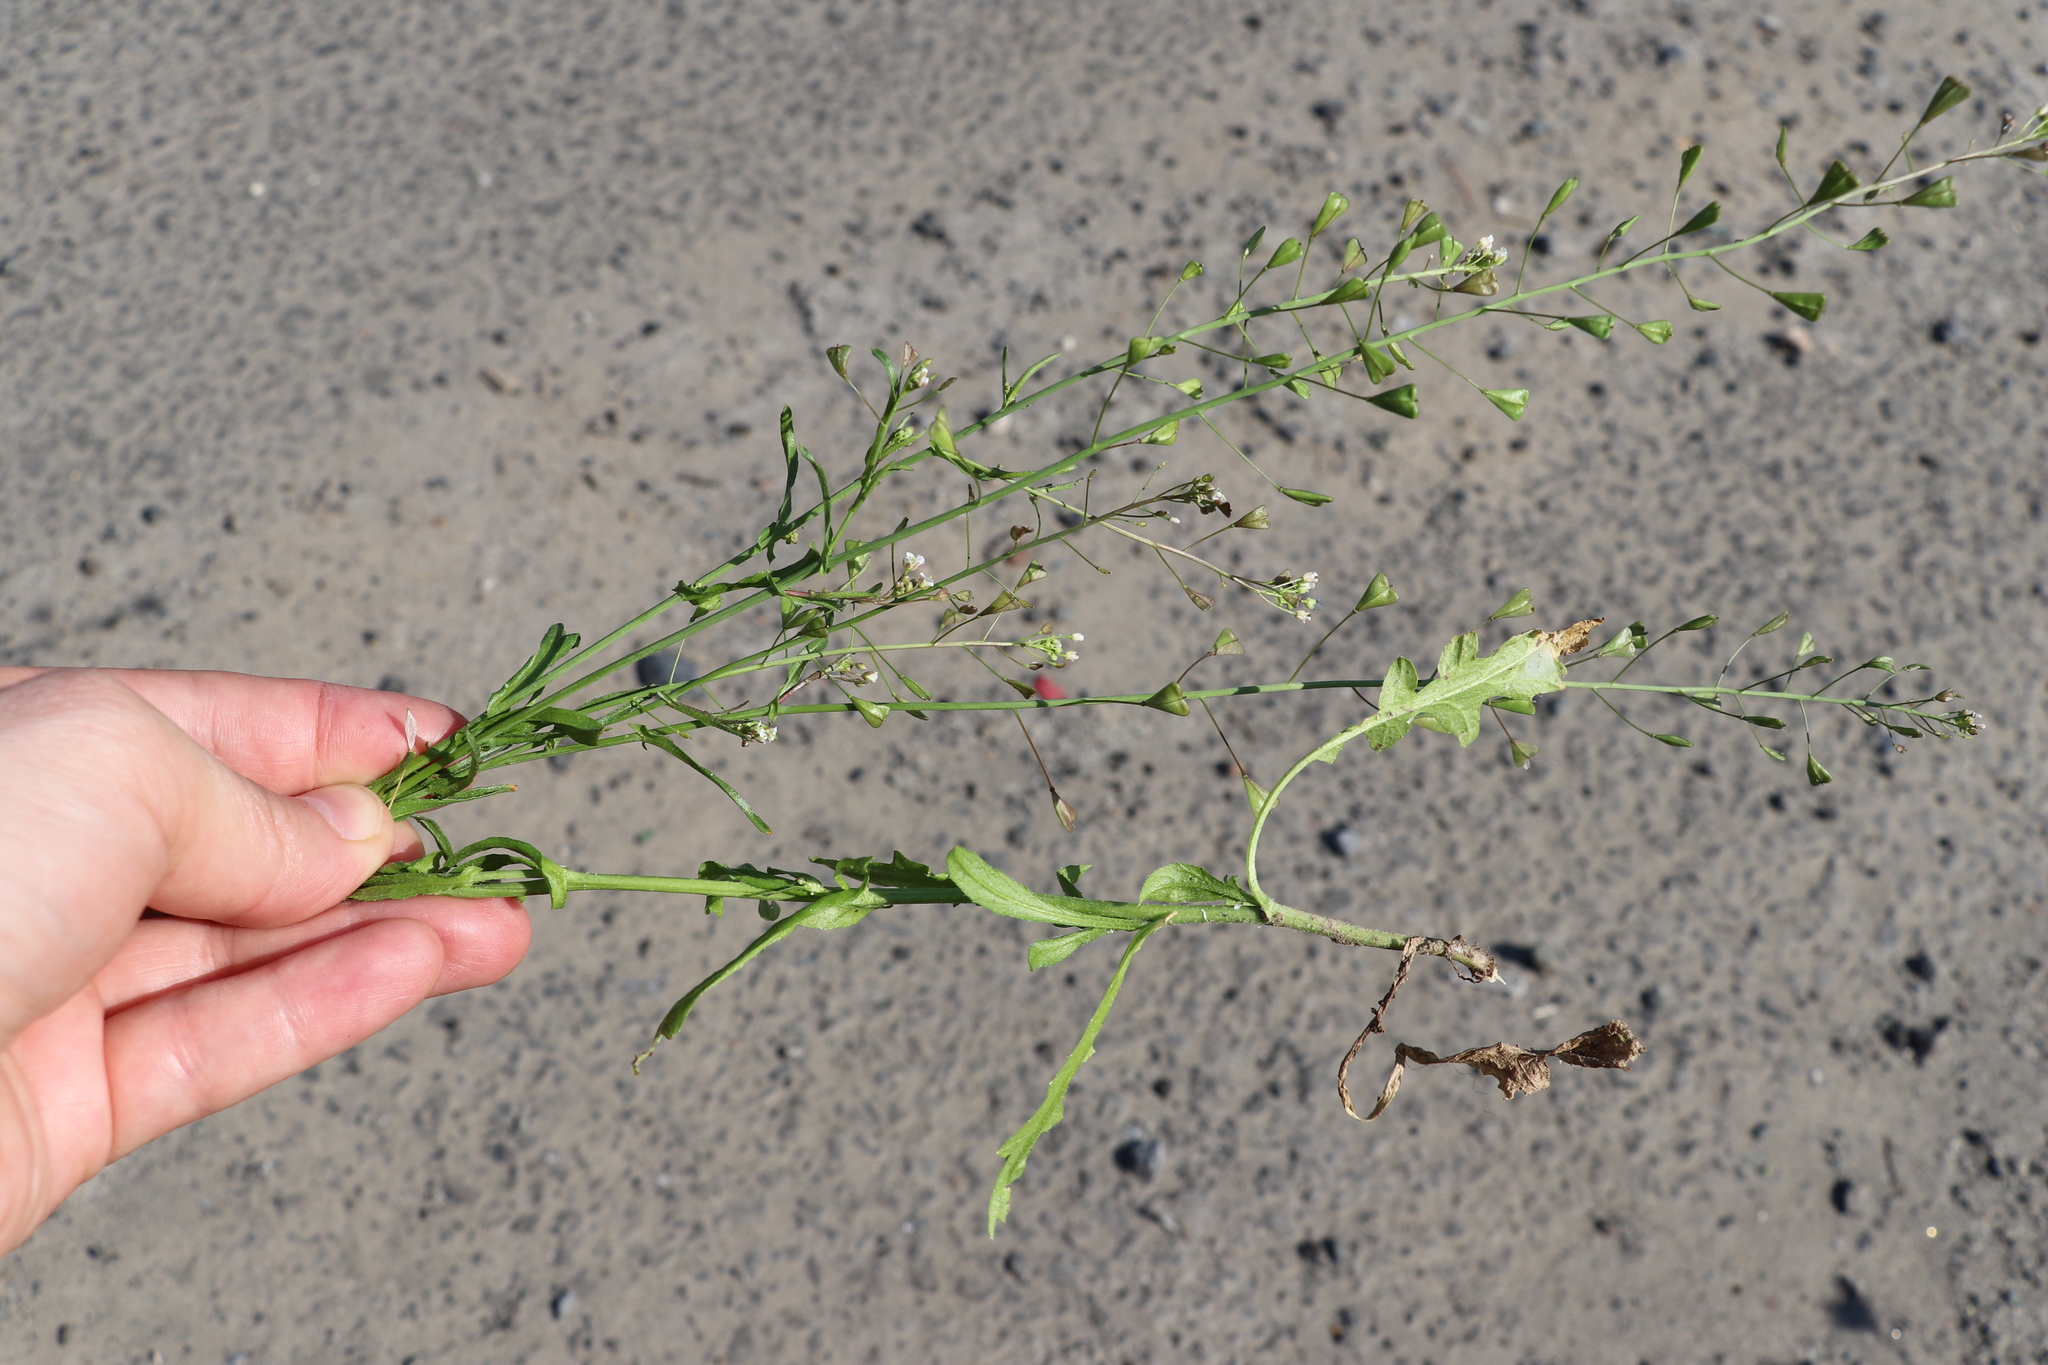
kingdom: Plantae
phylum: Tracheophyta
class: Magnoliopsida
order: Brassicales
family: Brassicaceae
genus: Capsella
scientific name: Capsella bursa-pastoris
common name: Shepherd's purse
